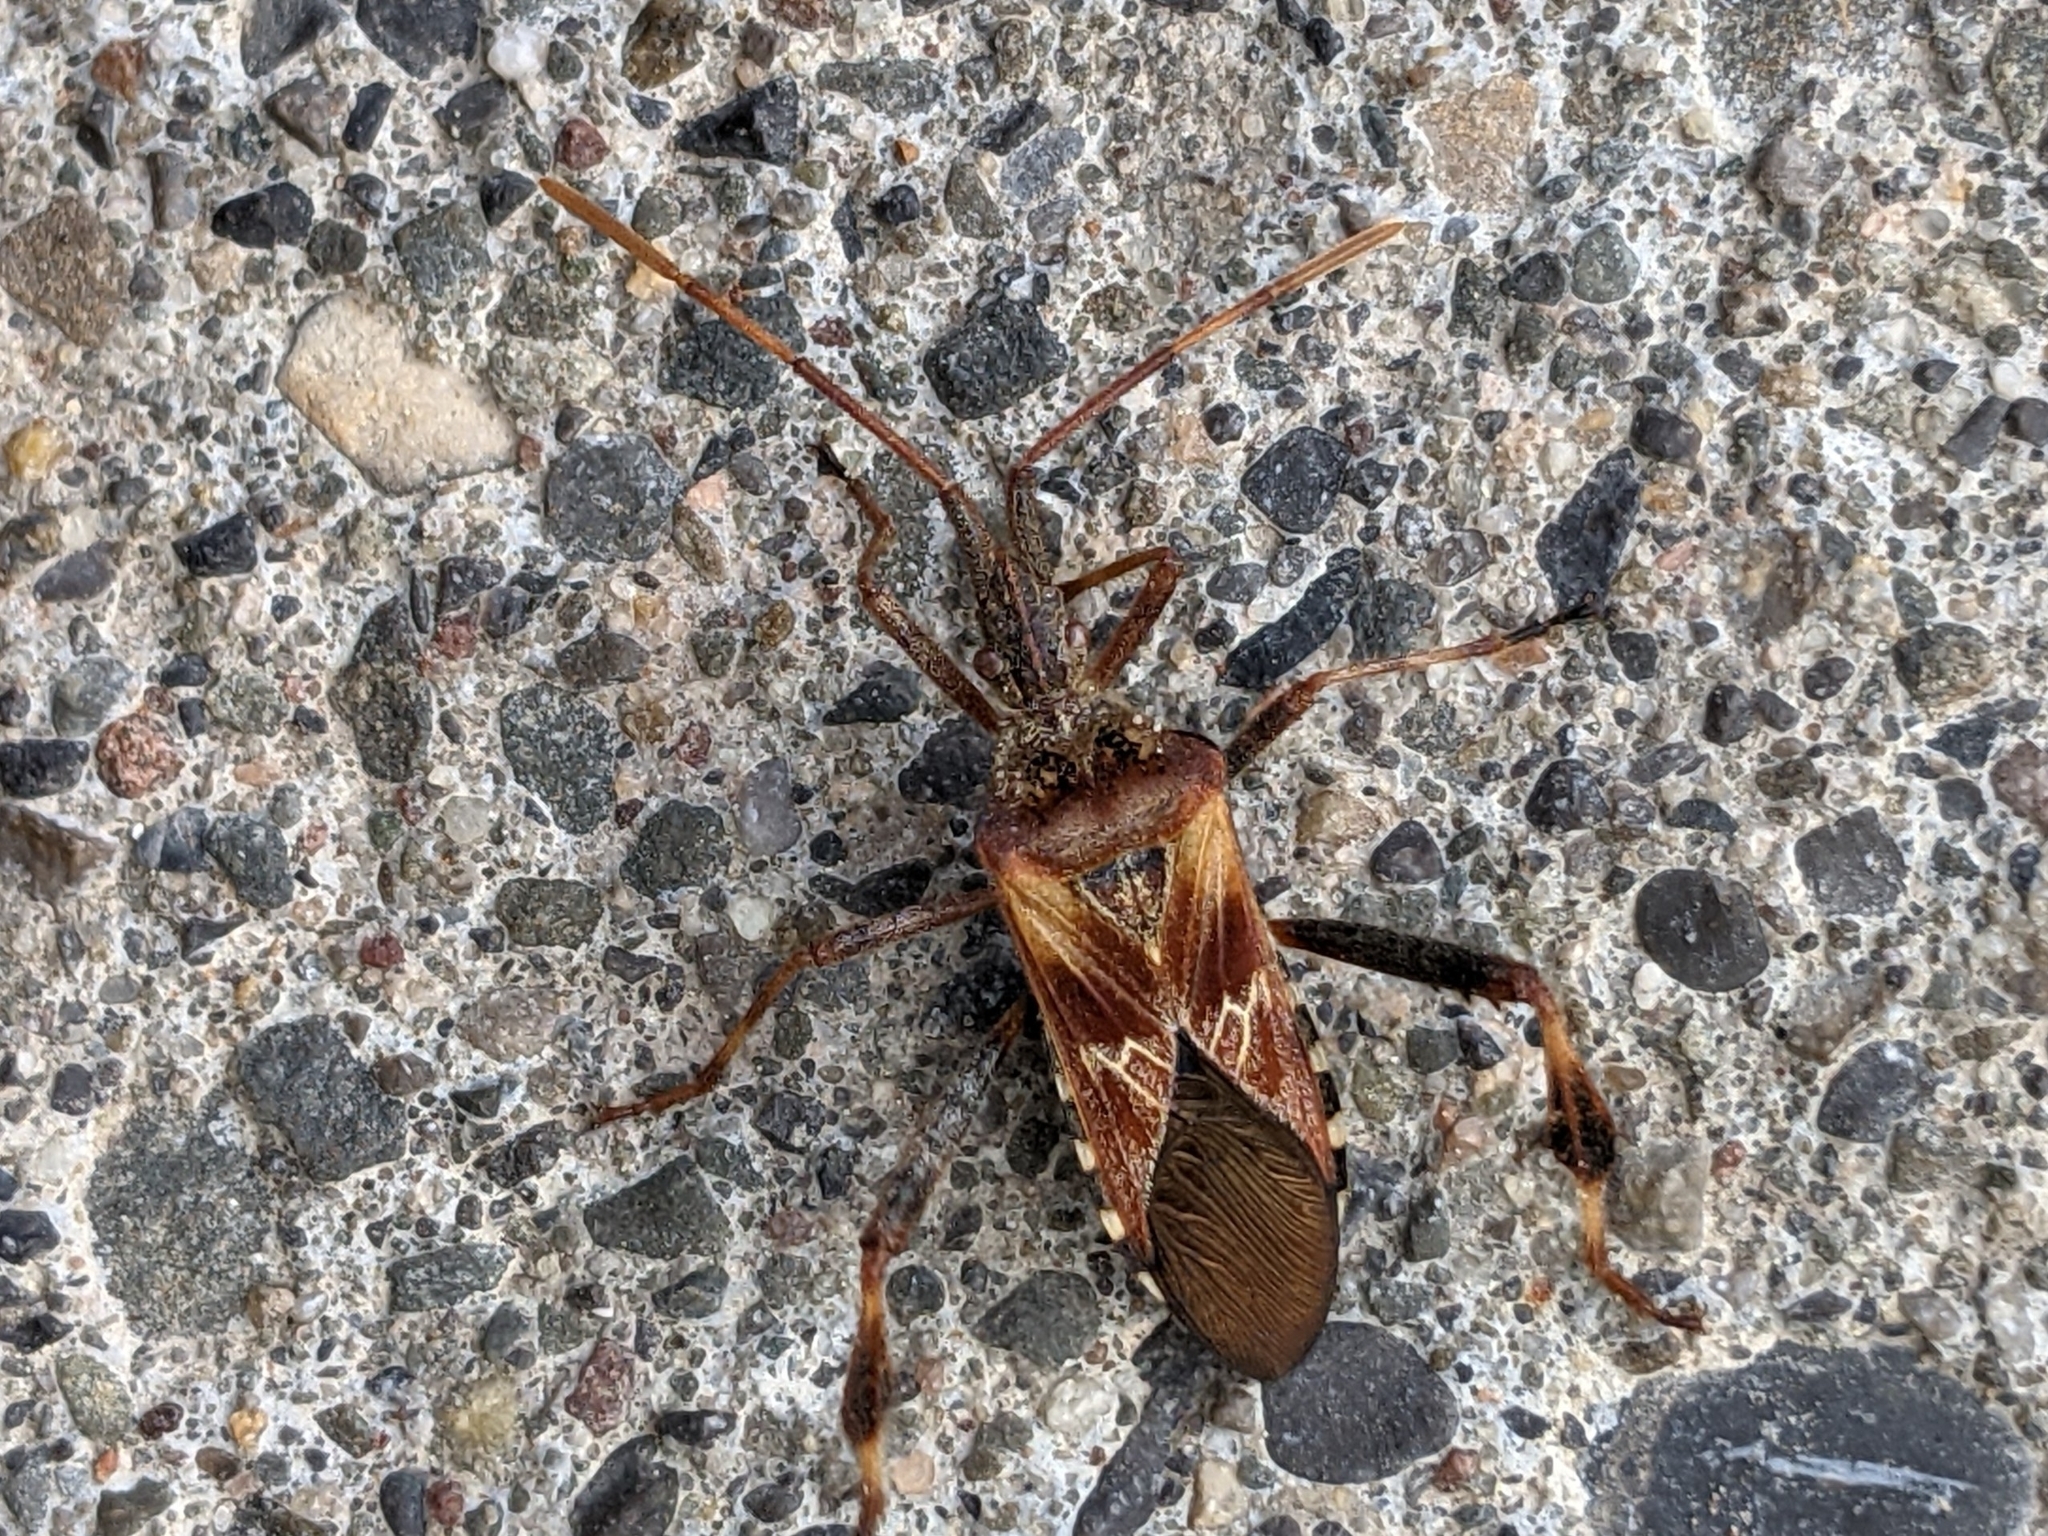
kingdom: Animalia
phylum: Arthropoda
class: Insecta
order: Hemiptera
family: Coreidae
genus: Leptoglossus
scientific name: Leptoglossus occidentalis
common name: Western conifer-seed bug
